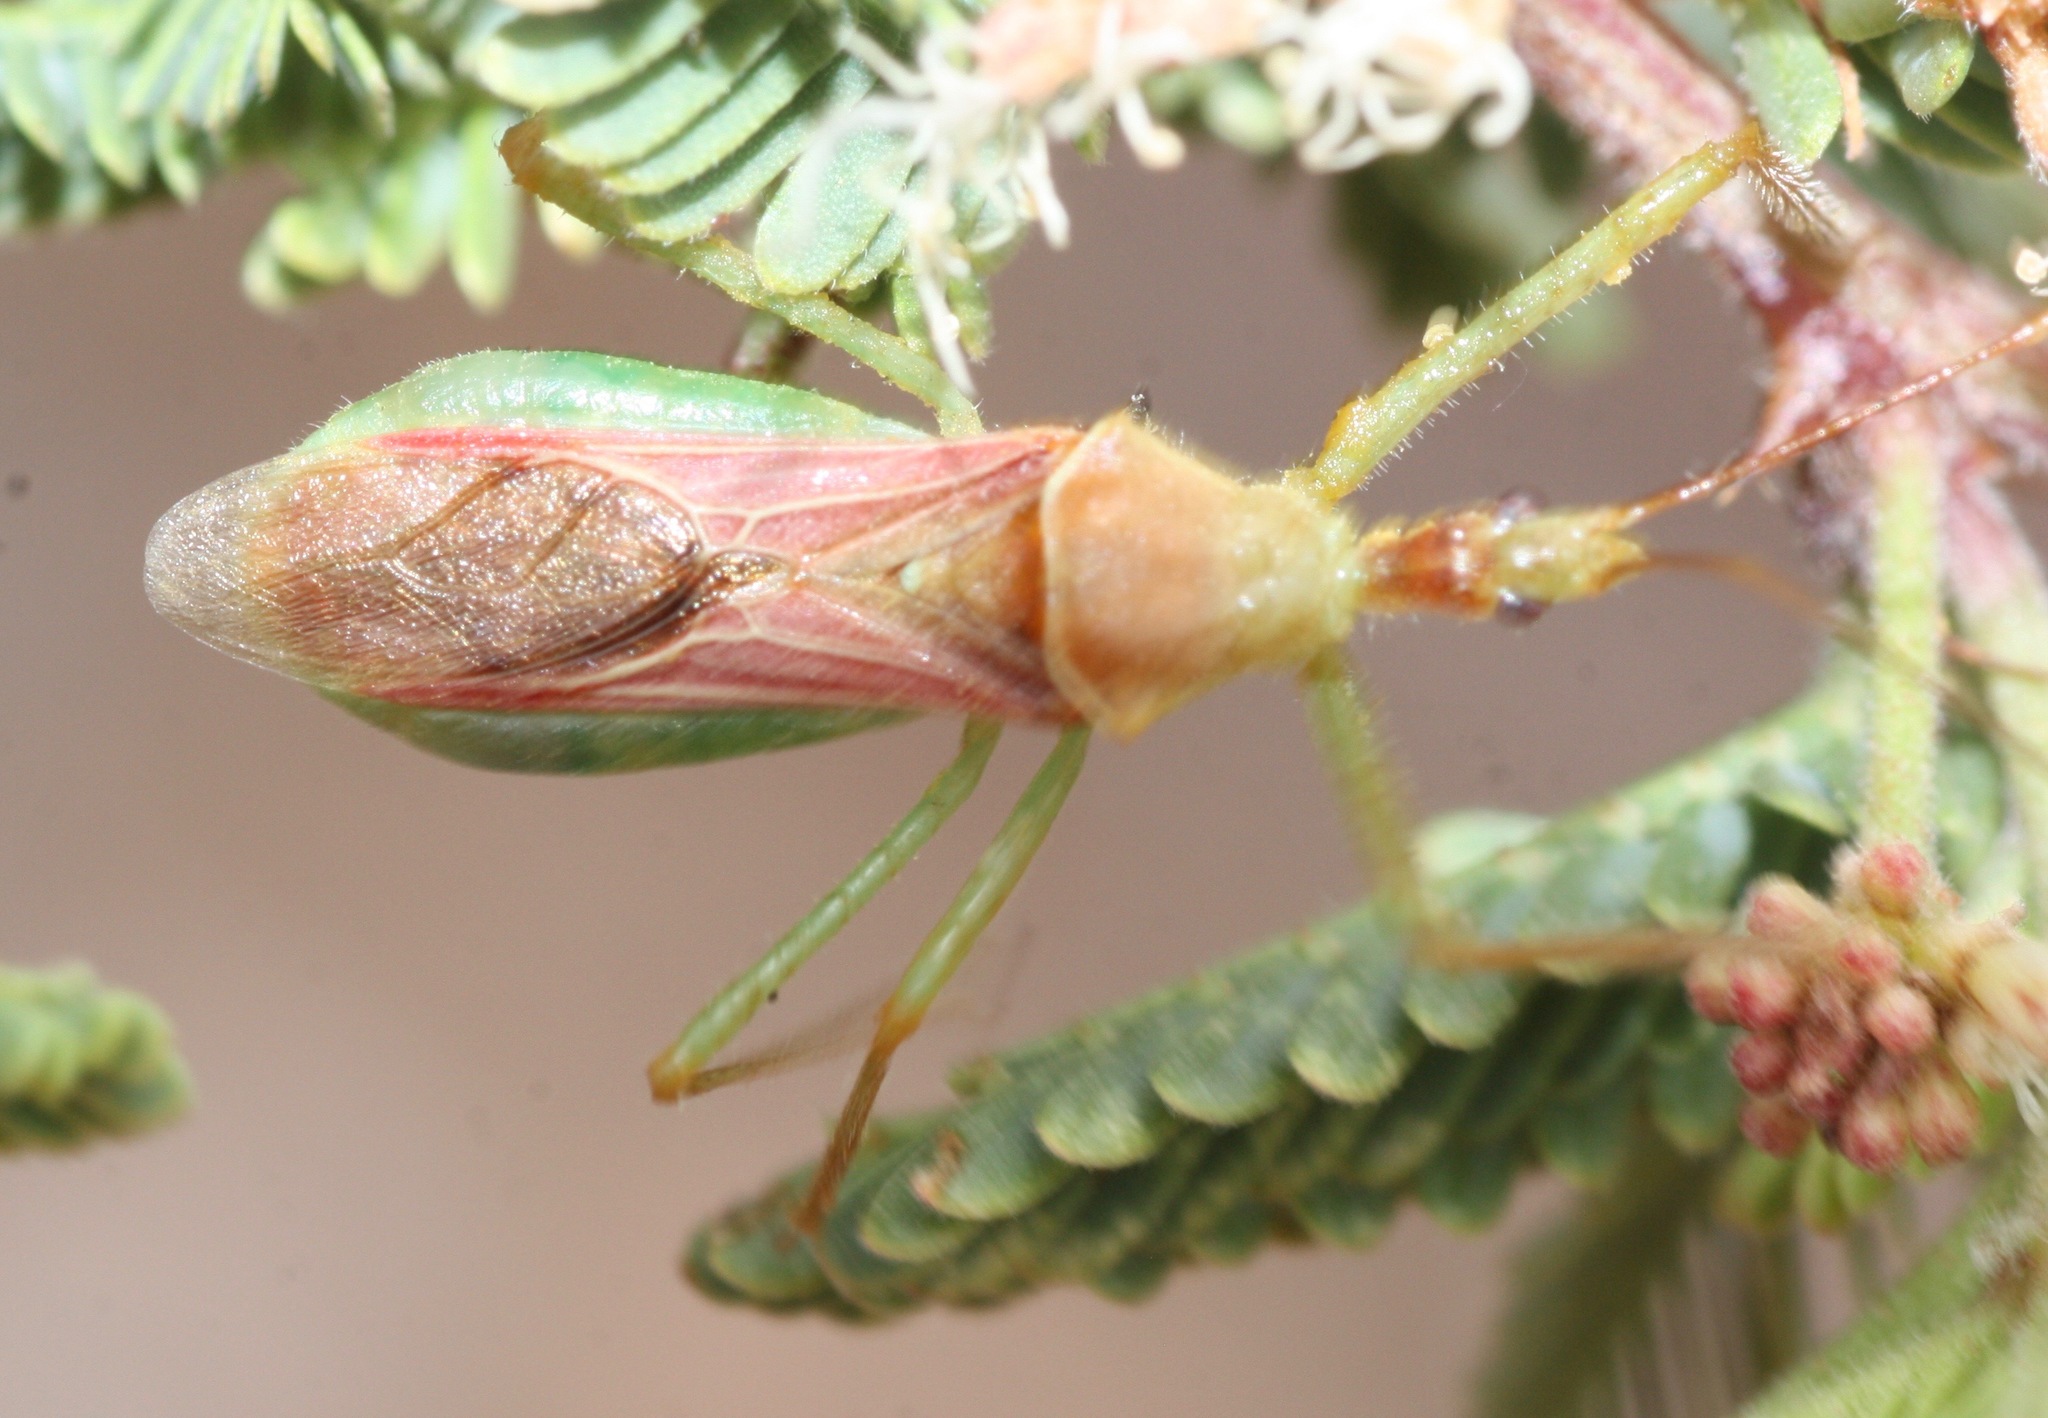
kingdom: Animalia
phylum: Arthropoda
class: Insecta
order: Hemiptera
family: Reduviidae
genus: Zelus
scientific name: Zelus renardii
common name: Assassin bug
